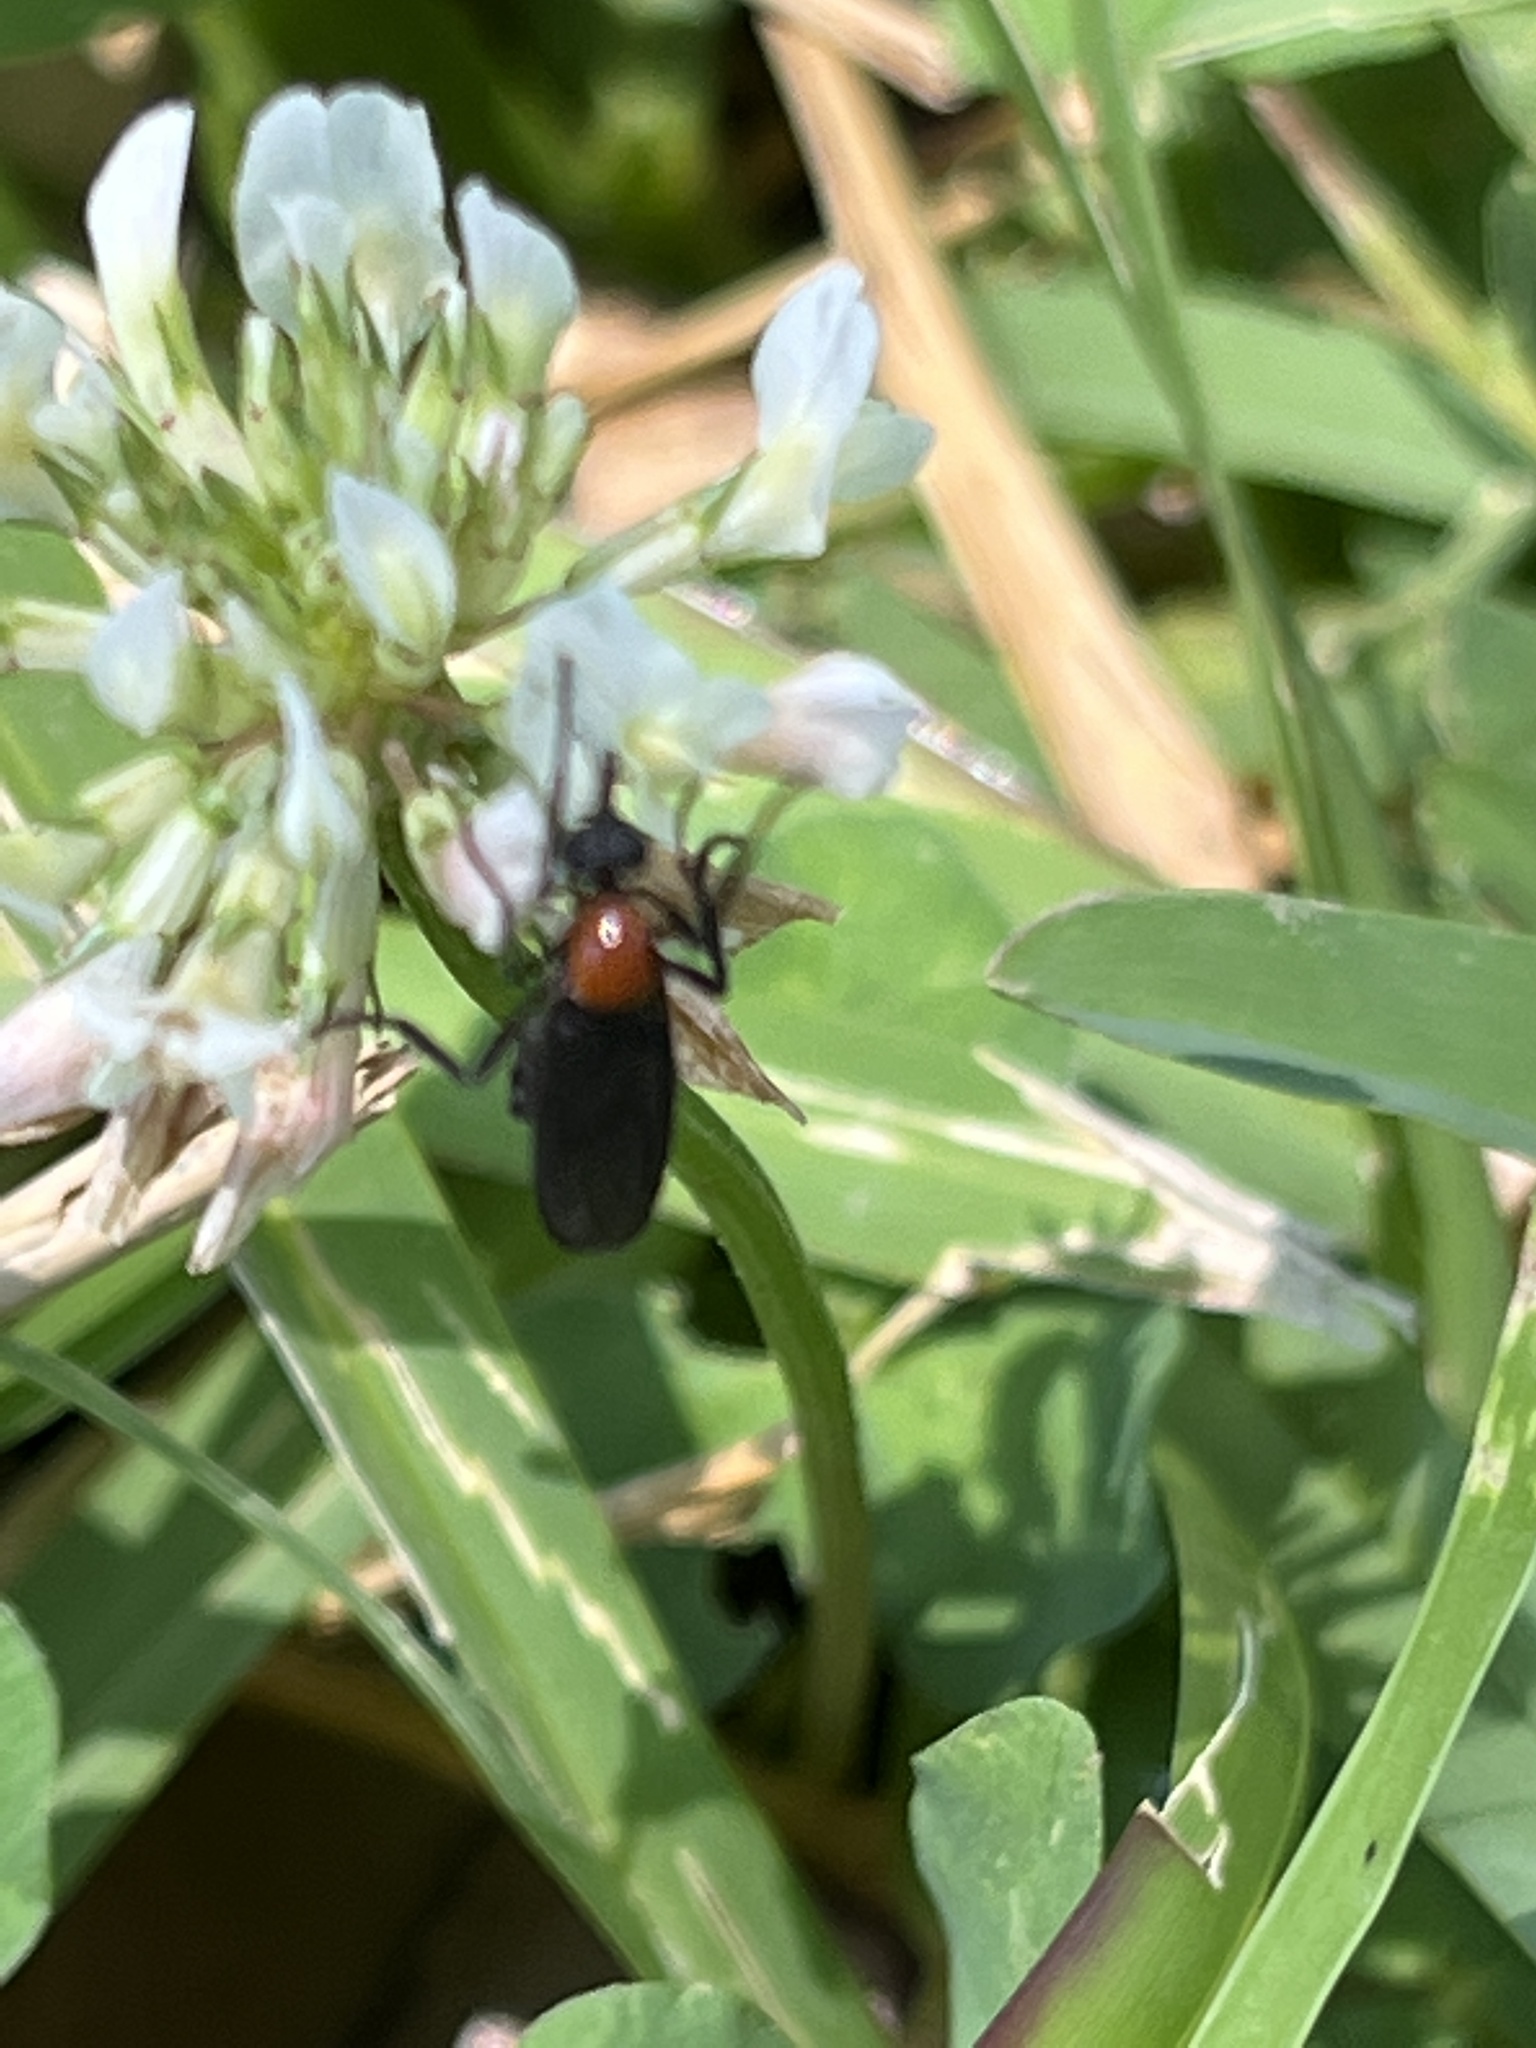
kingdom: Animalia
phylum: Arthropoda
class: Insecta
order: Diptera
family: Bibionidae
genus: Plecia
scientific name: Plecia nearctica
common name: March fly
